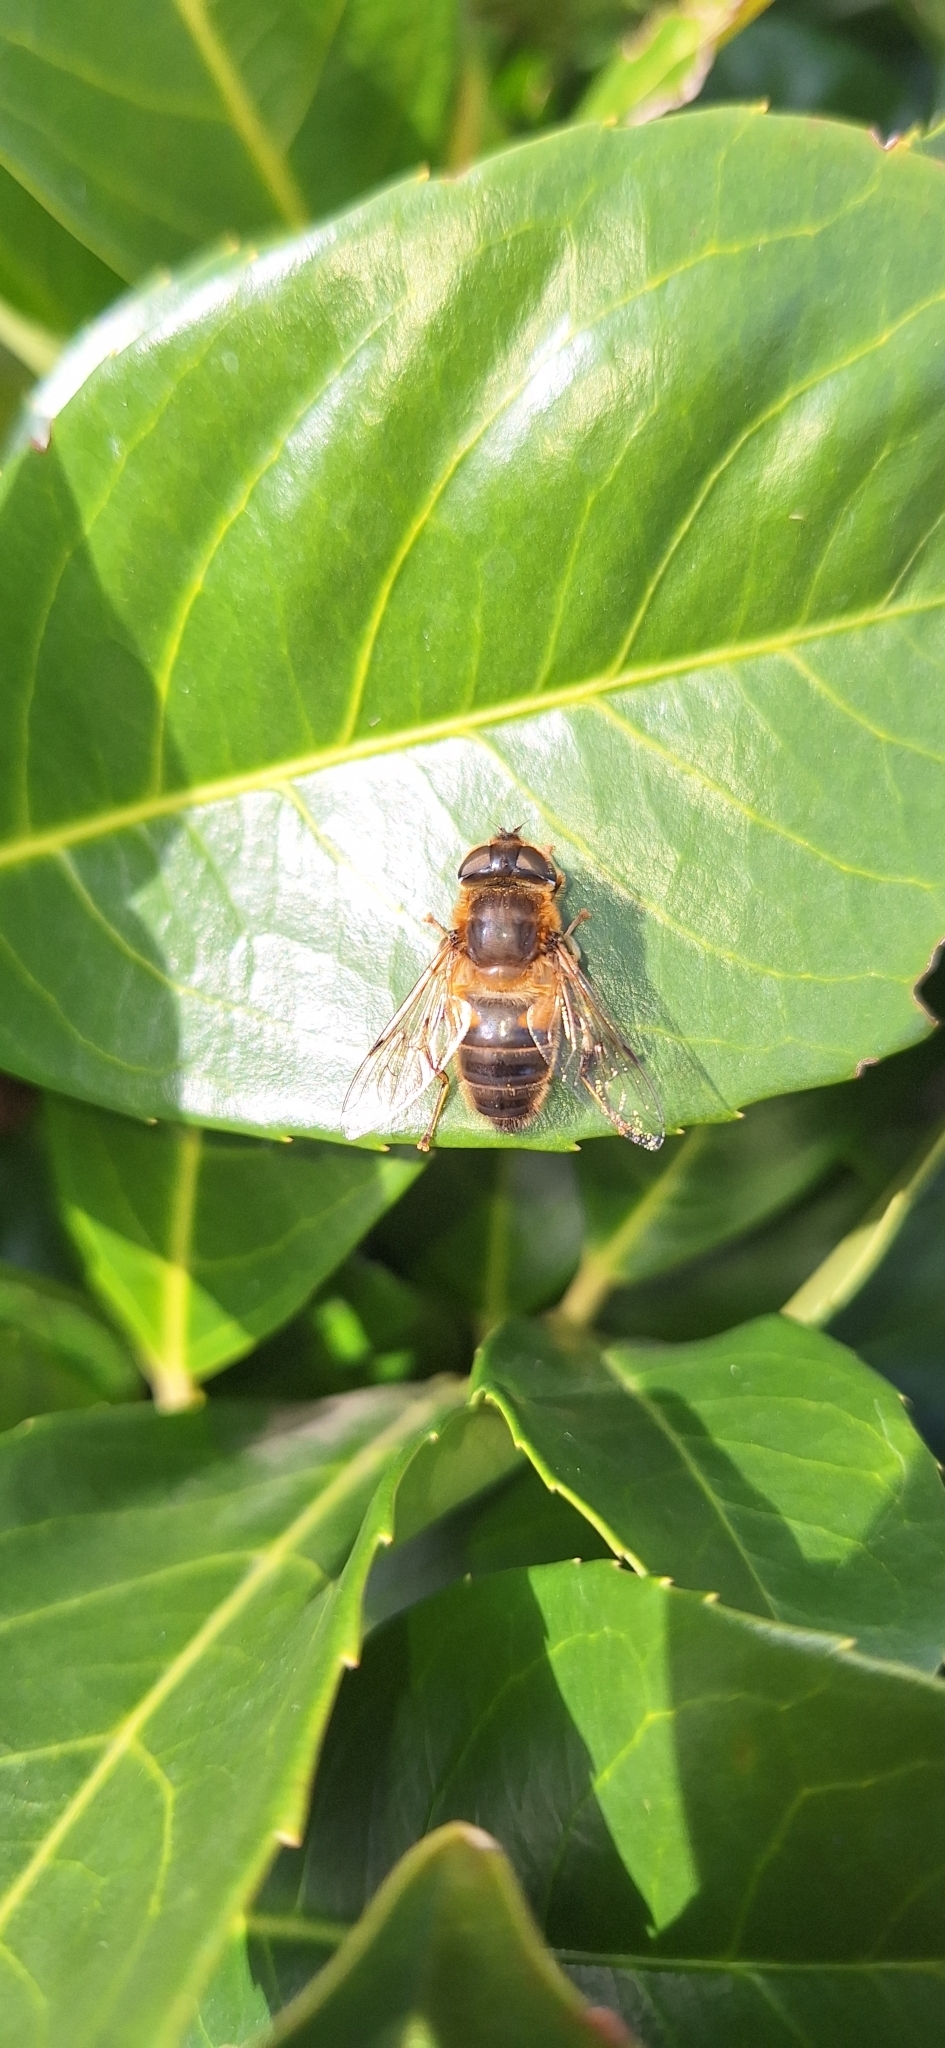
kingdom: Animalia
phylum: Arthropoda
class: Insecta
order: Diptera
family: Syrphidae
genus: Eristalis
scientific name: Eristalis pertinax
